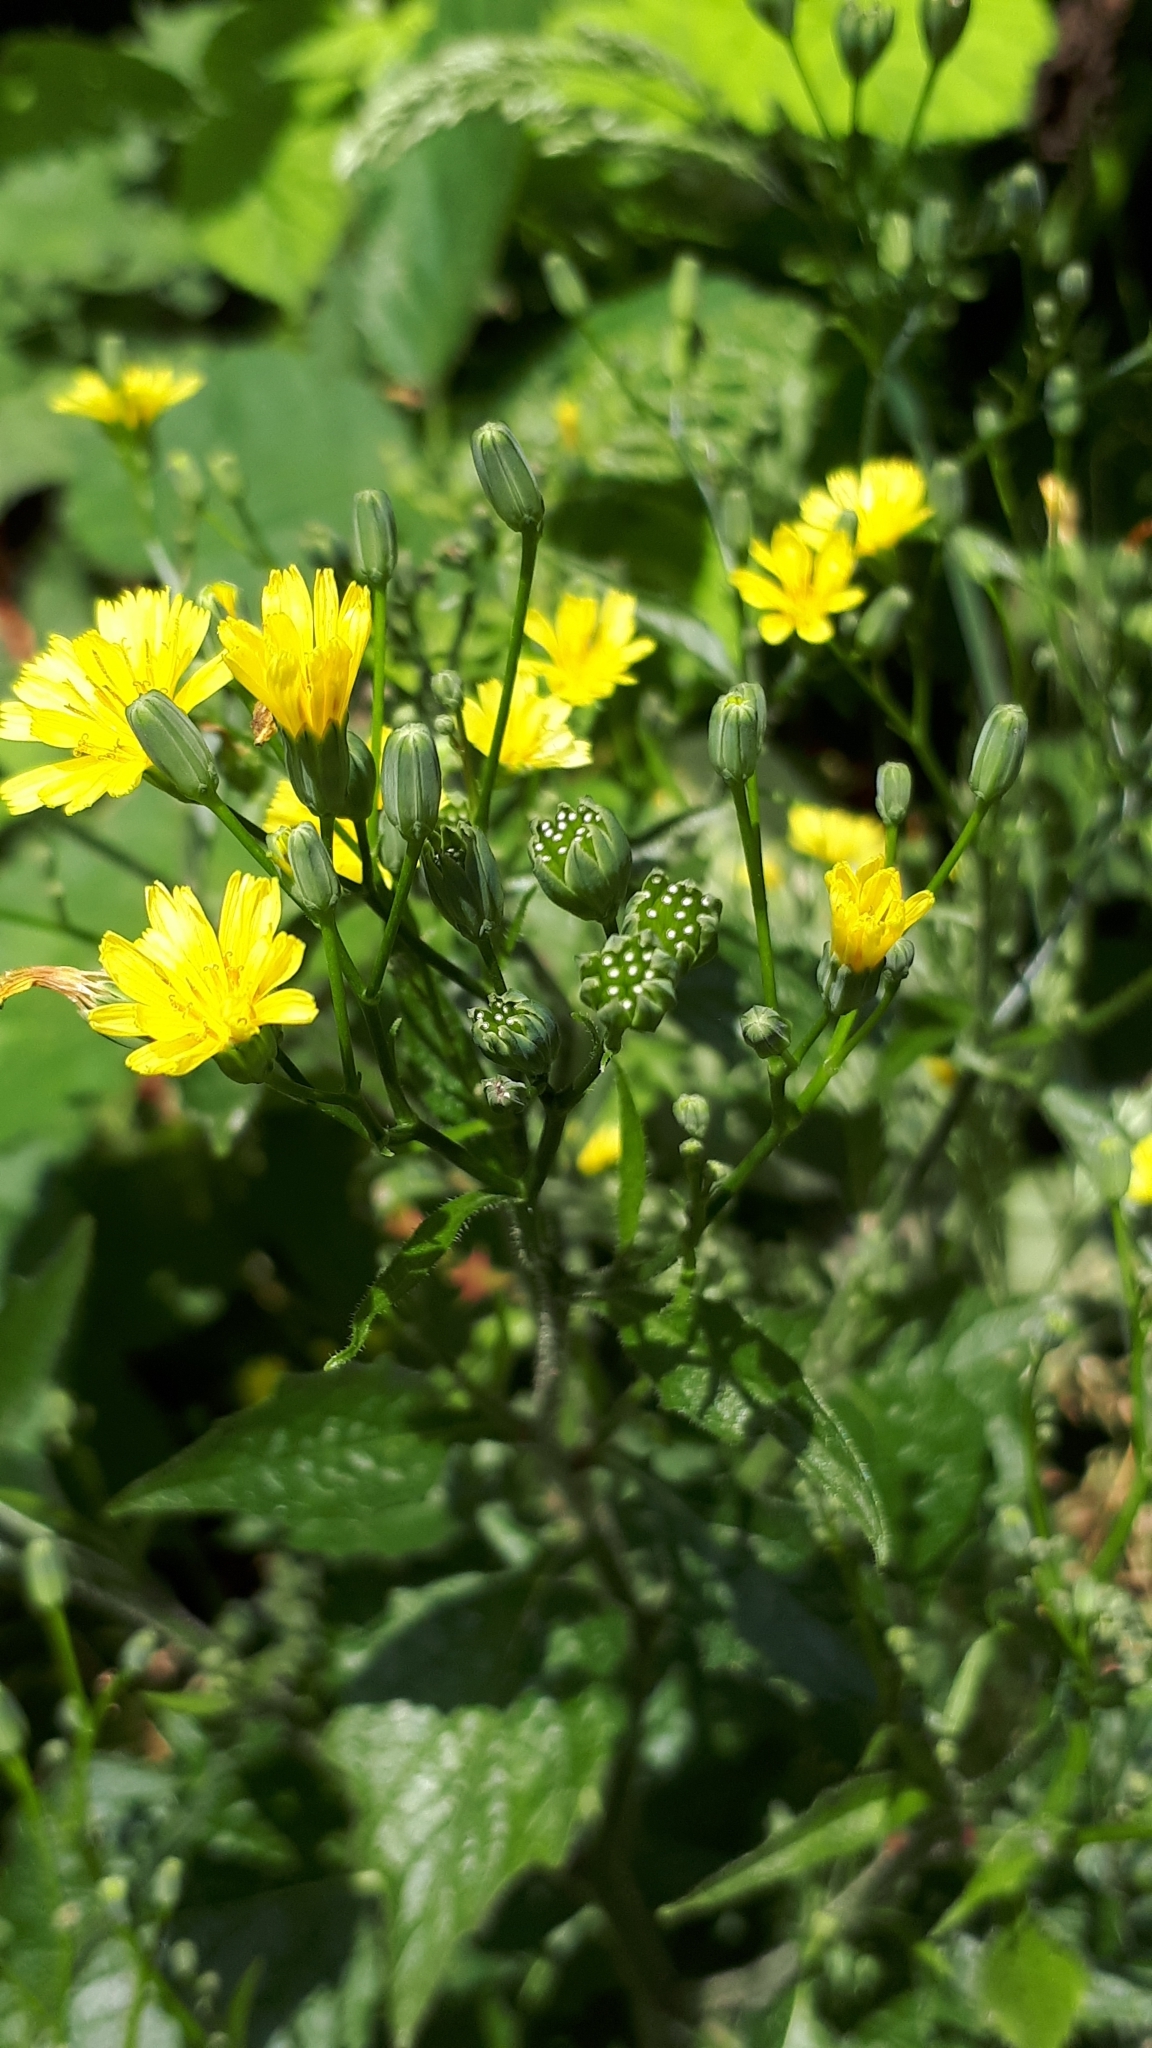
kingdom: Plantae
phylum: Tracheophyta
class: Magnoliopsida
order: Asterales
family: Asteraceae
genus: Lapsana
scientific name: Lapsana communis
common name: Nipplewort
